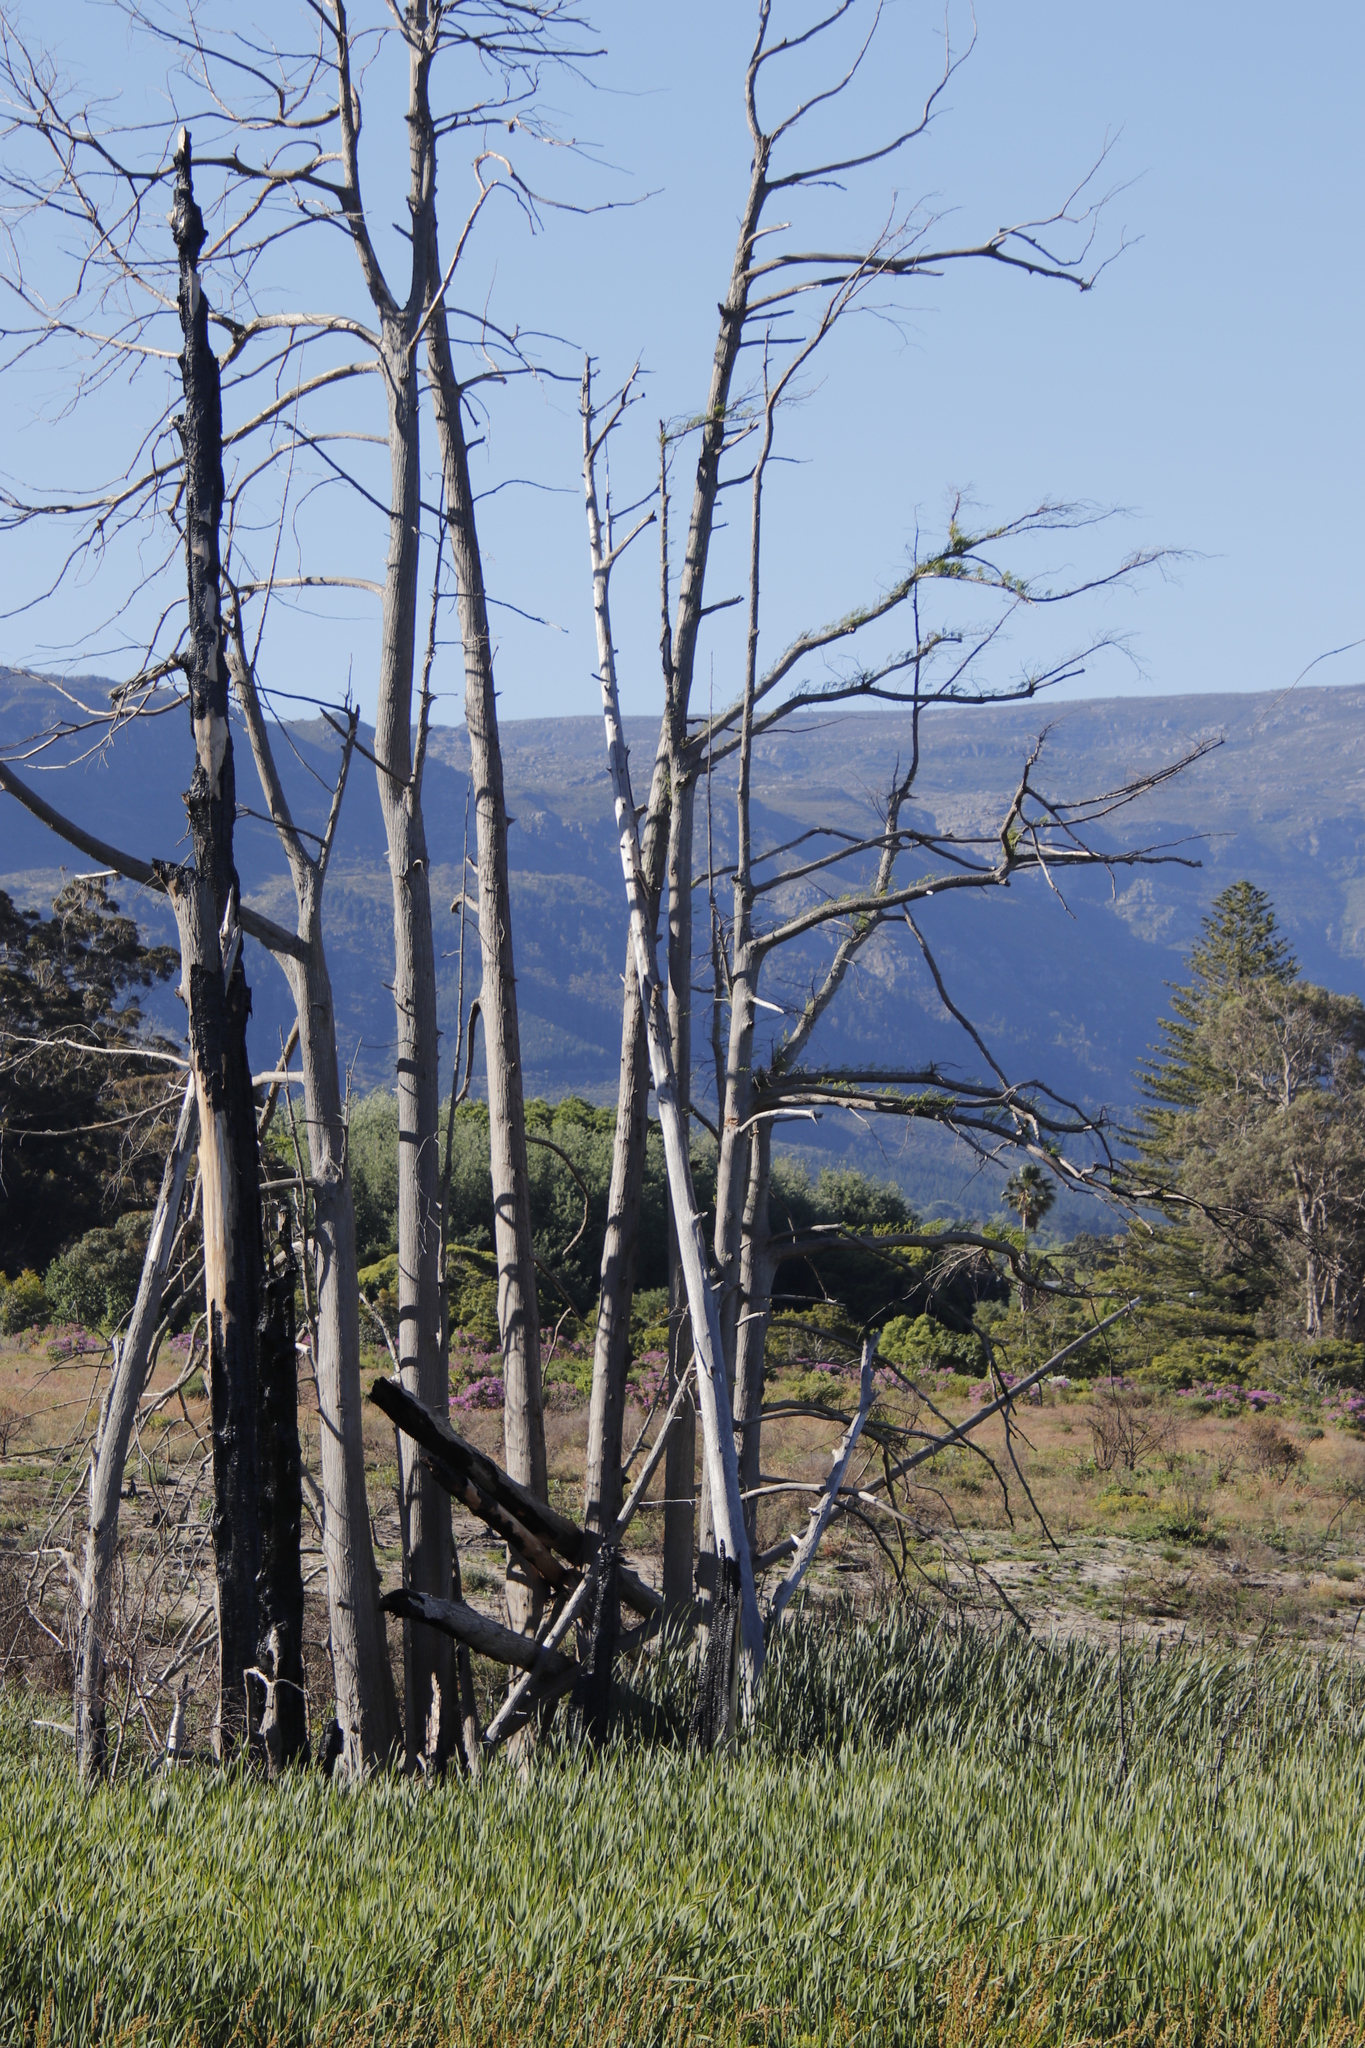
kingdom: Plantae
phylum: Tracheophyta
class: Pinopsida
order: Pinales
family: Cupressaceae
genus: Taxodium
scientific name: Taxodium distichum
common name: Bald cypress
